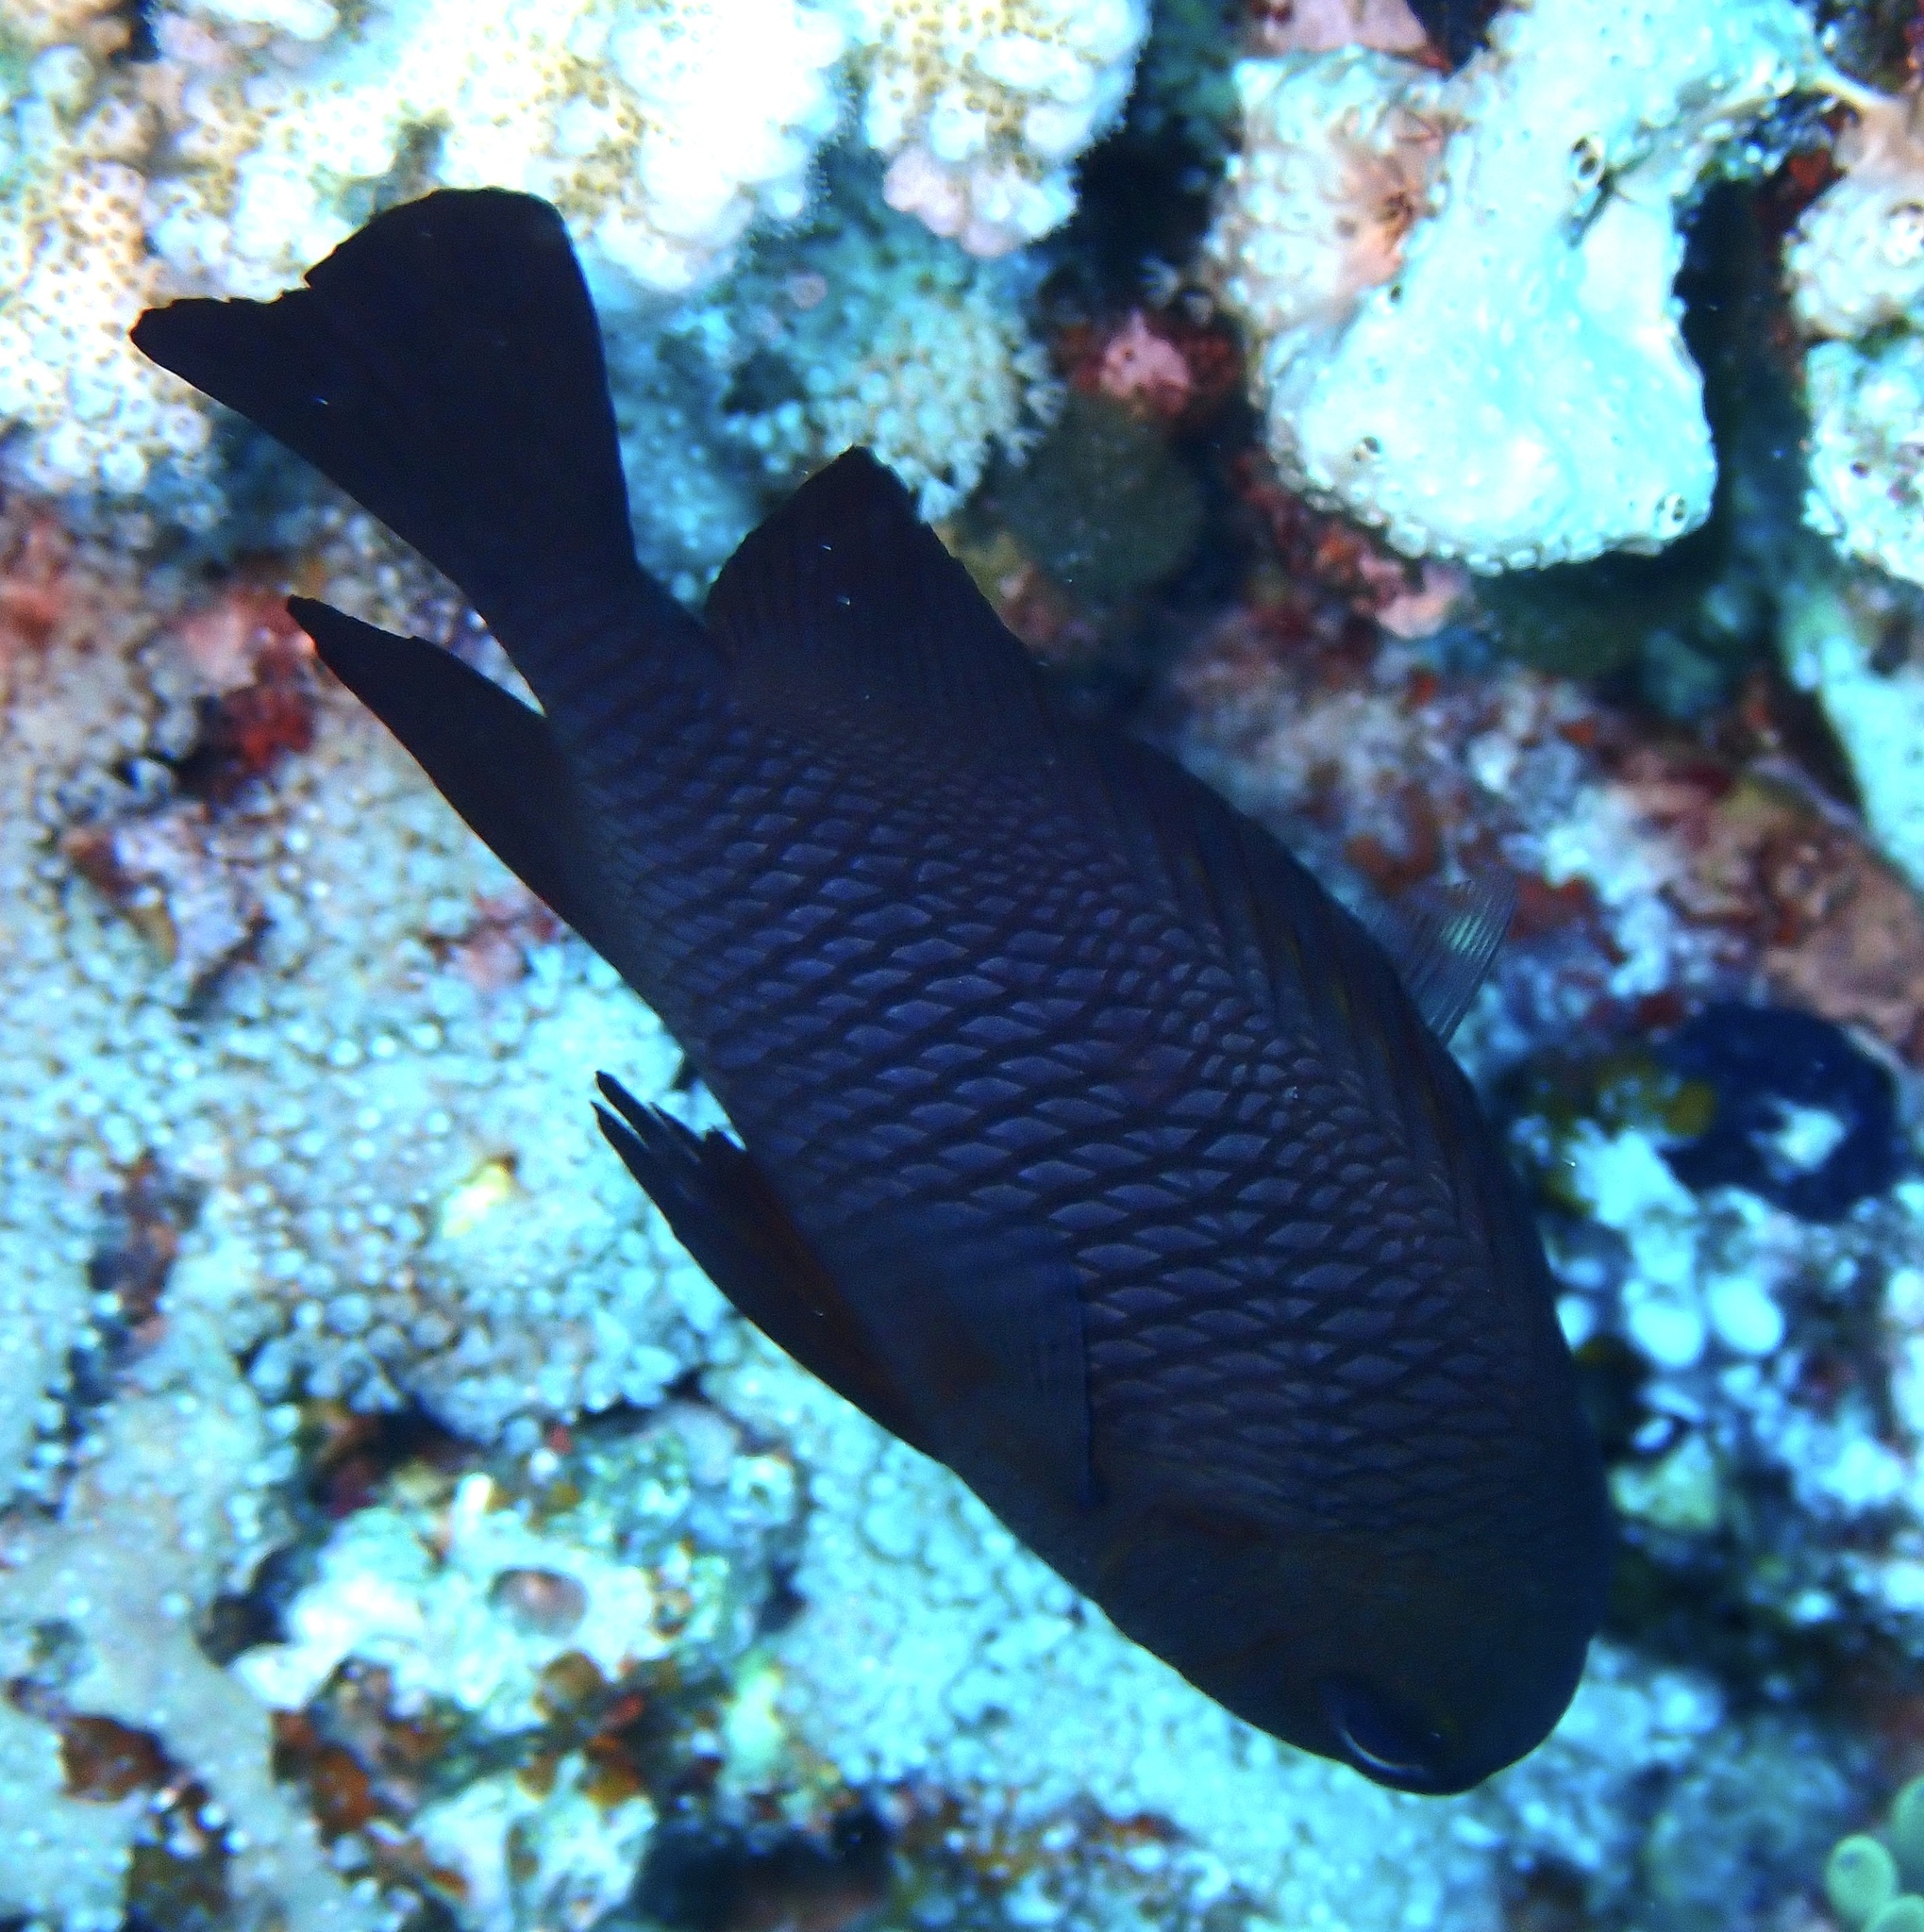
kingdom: Animalia
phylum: Chordata
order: Perciformes
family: Pomacentridae
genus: Dascyllus
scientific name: Dascyllus trimaculatus
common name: Threespot dascyllus
